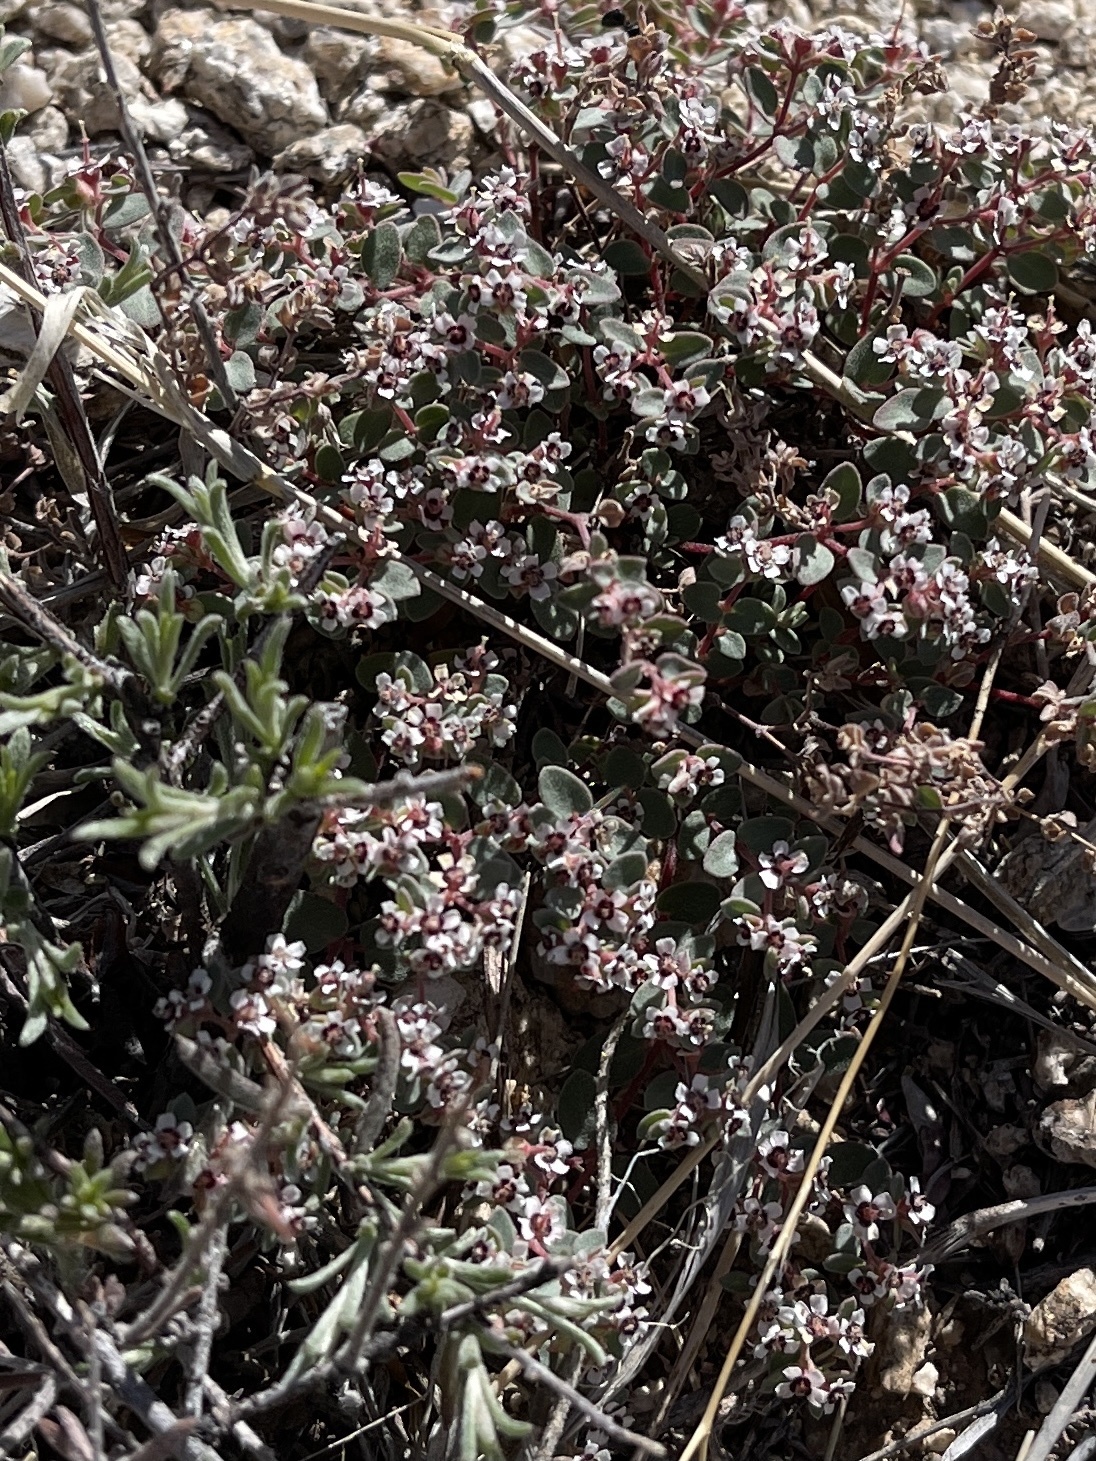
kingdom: Plantae
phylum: Tracheophyta
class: Magnoliopsida
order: Malpighiales
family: Euphorbiaceae
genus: Euphorbia
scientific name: Euphorbia melanadenia
